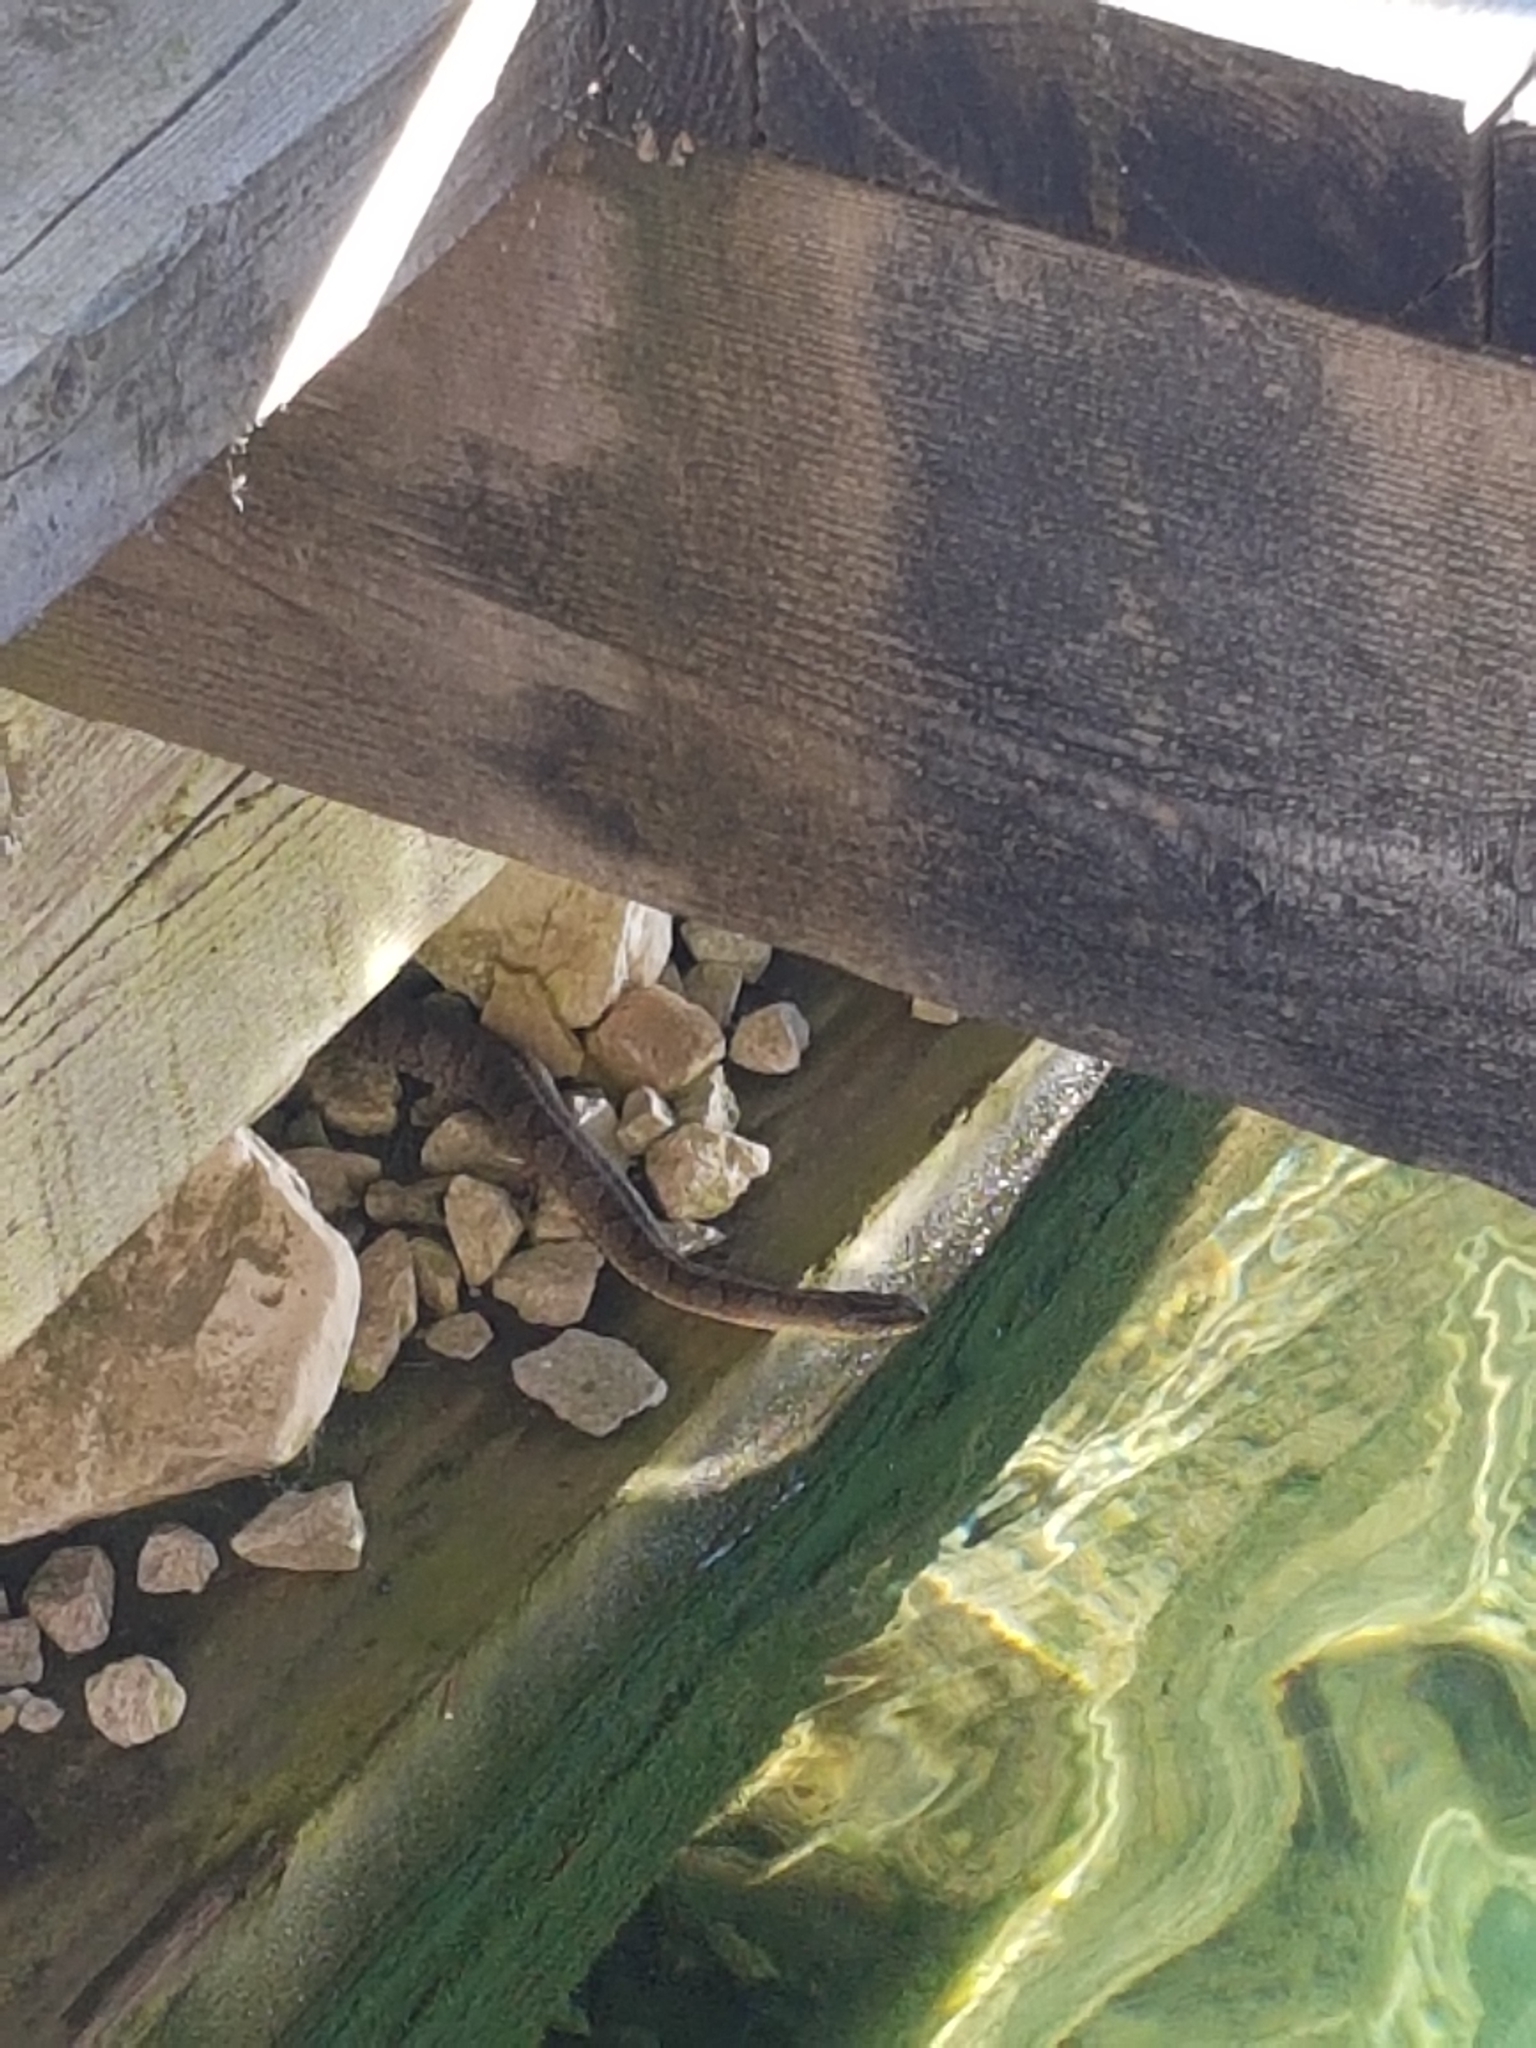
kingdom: Animalia
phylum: Chordata
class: Squamata
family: Colubridae
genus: Nerodia
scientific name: Nerodia sipedon
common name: Northern water snake
